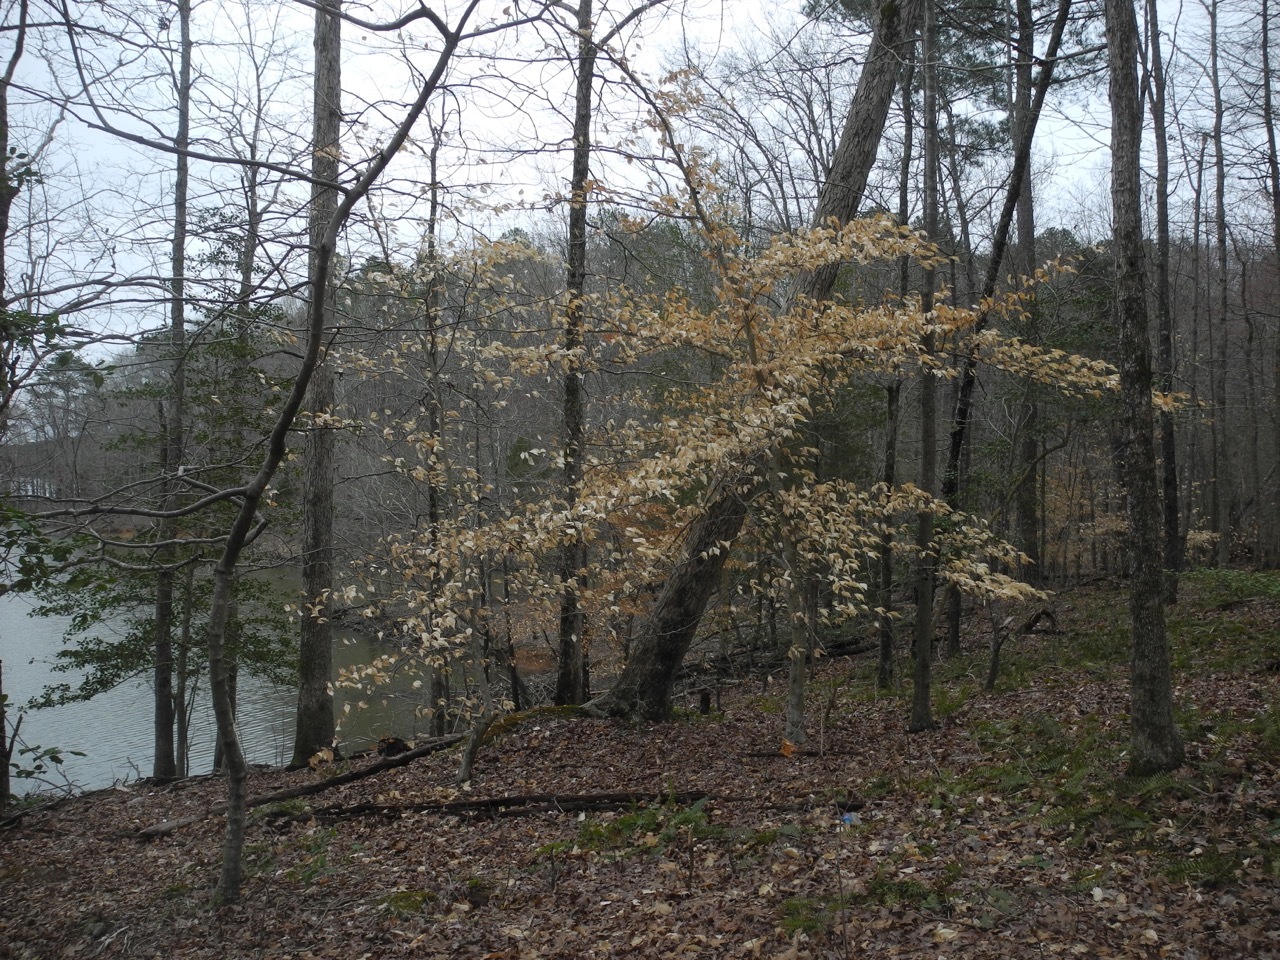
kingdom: Plantae
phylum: Tracheophyta
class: Magnoliopsida
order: Fagales
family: Fagaceae
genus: Fagus
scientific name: Fagus grandifolia
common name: American beech
